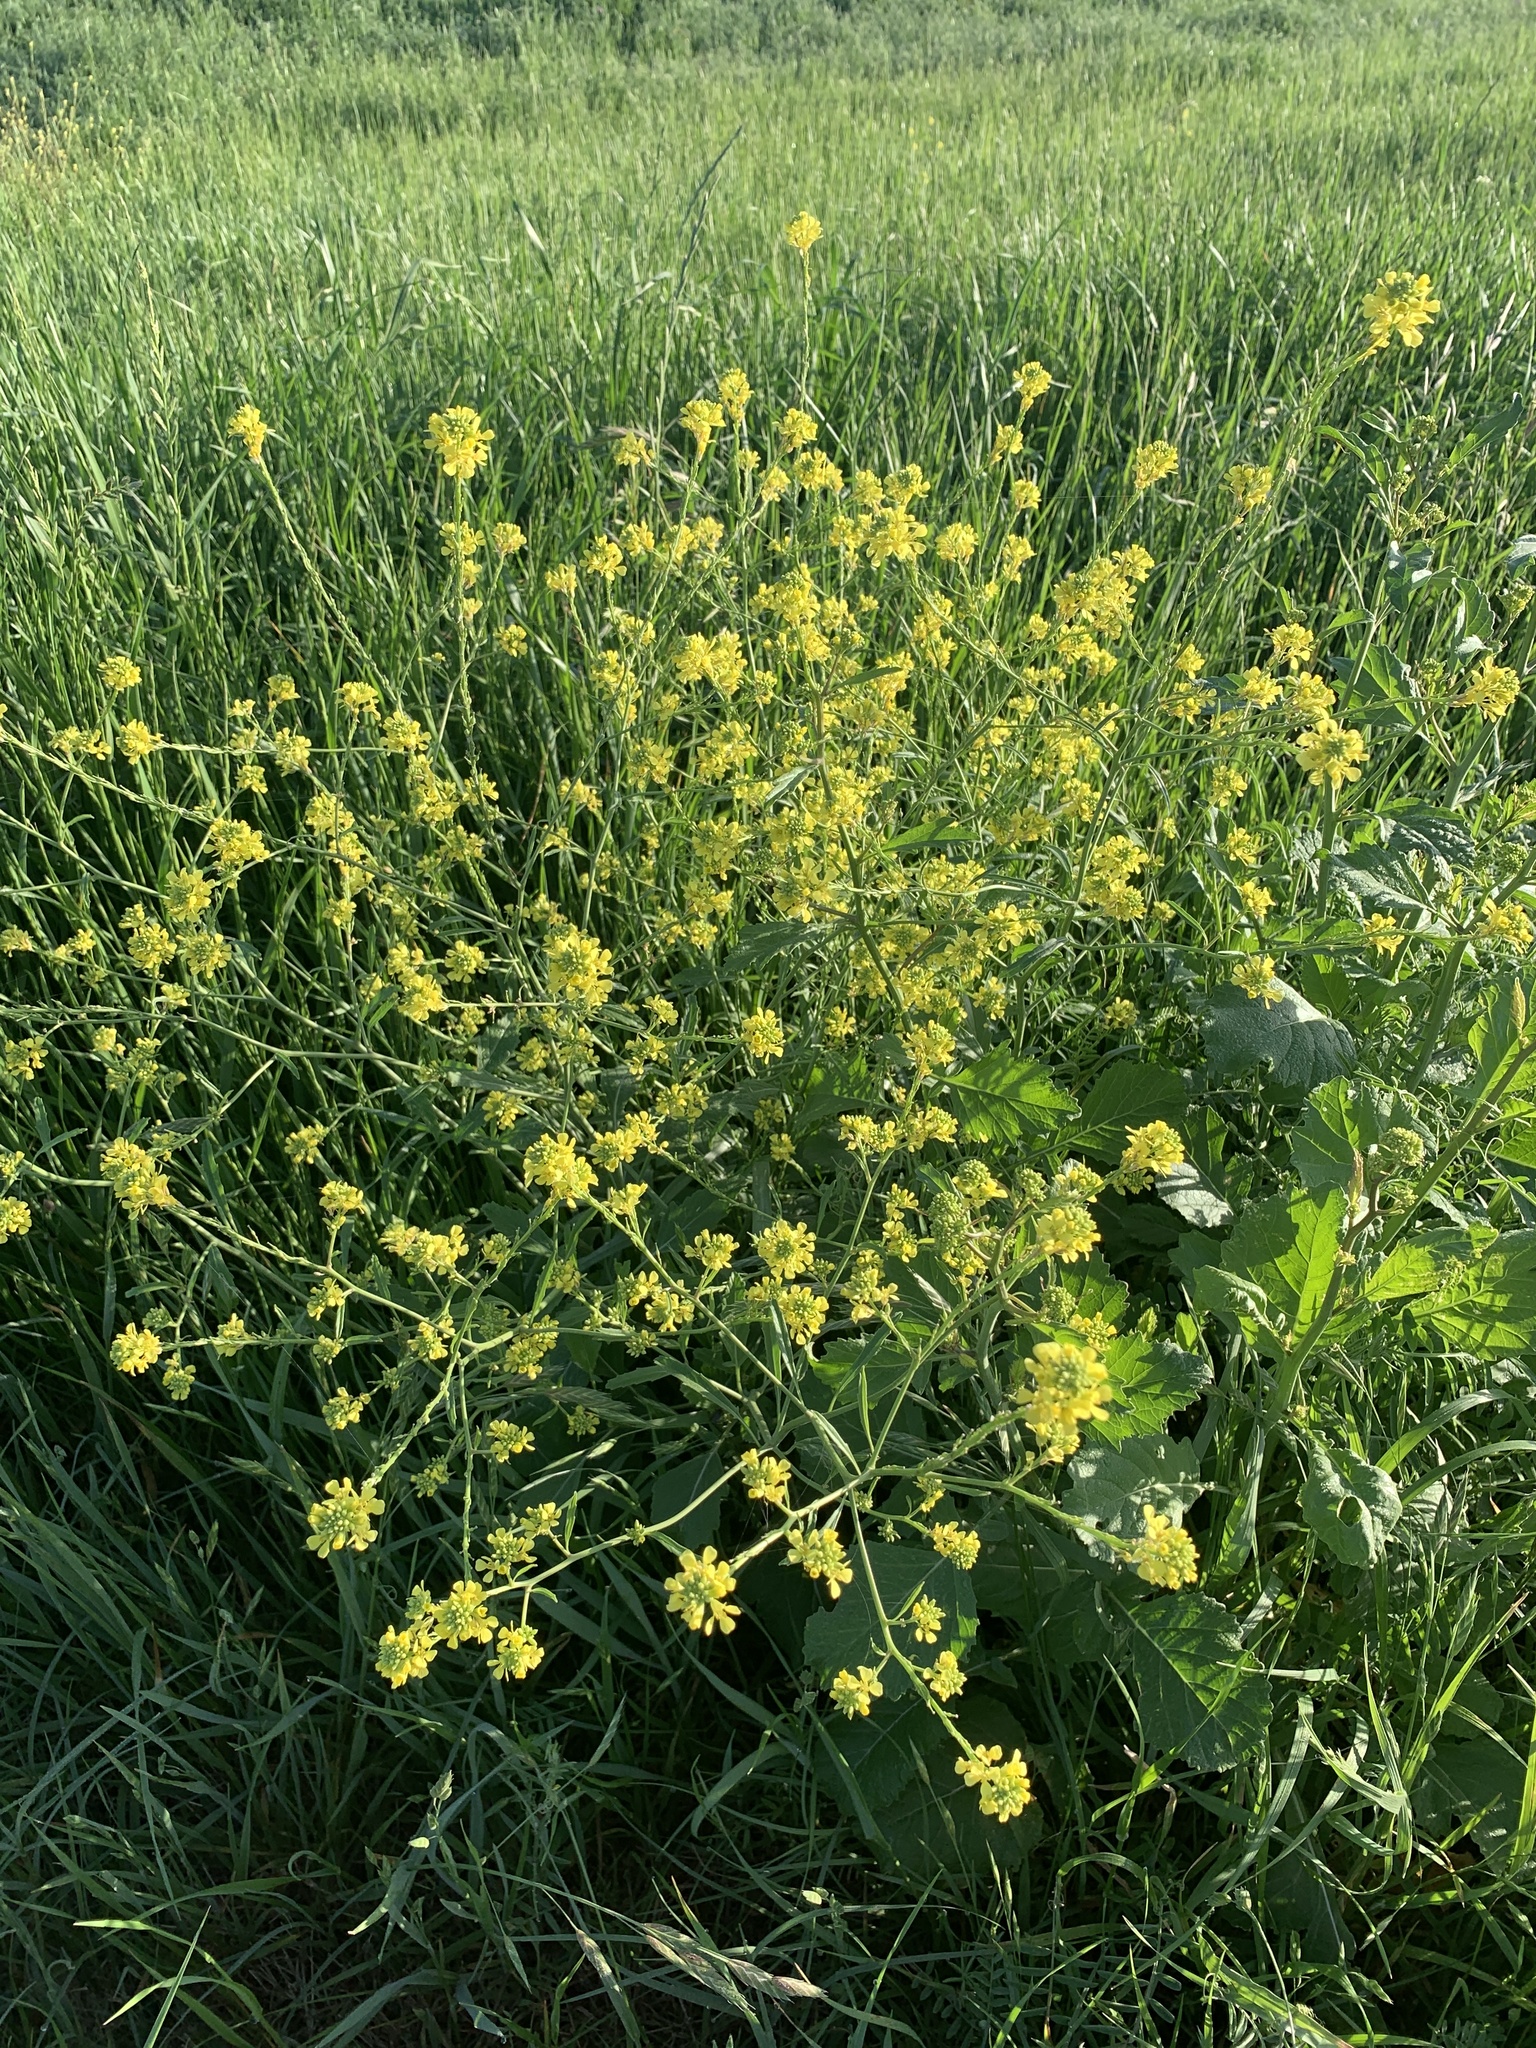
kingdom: Plantae
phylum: Tracheophyta
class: Magnoliopsida
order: Brassicales
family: Brassicaceae
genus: Rapistrum
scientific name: Rapistrum rugosum
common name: Annual bastardcabbage
